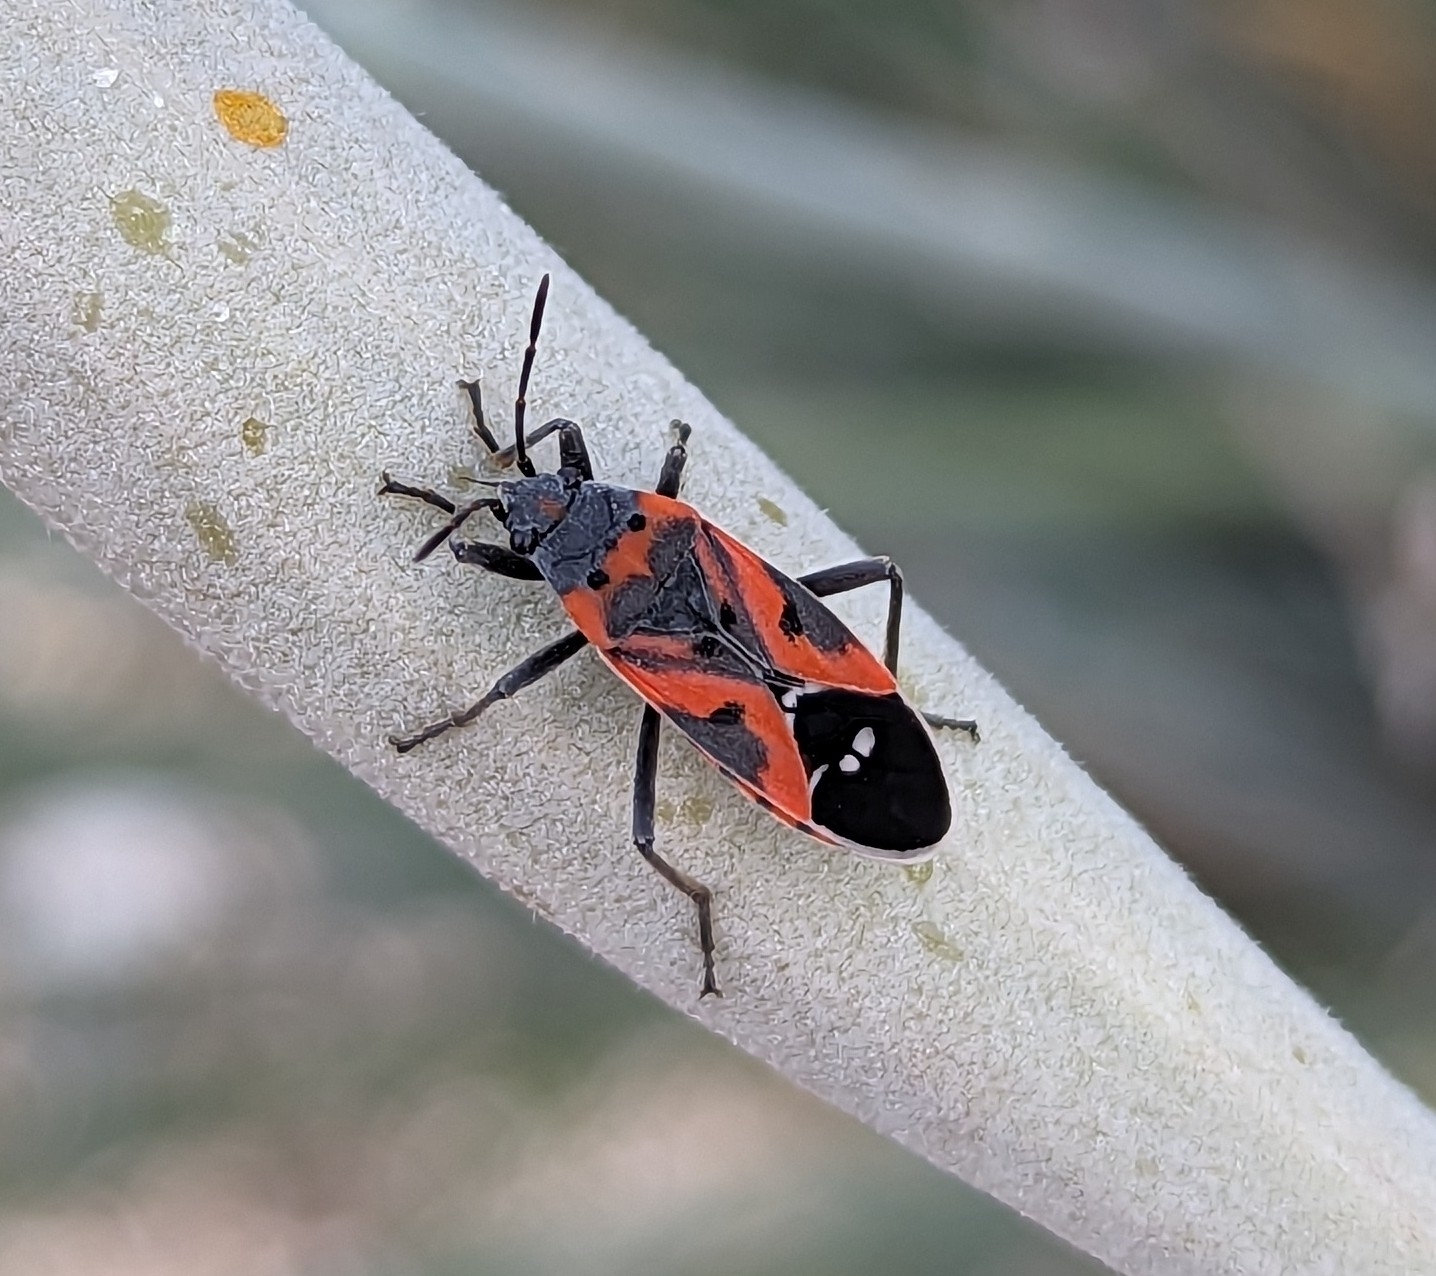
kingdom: Animalia
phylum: Arthropoda
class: Insecta
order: Hemiptera
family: Lygaeidae
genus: Lygaeus
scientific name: Lygaeus reclivatus
